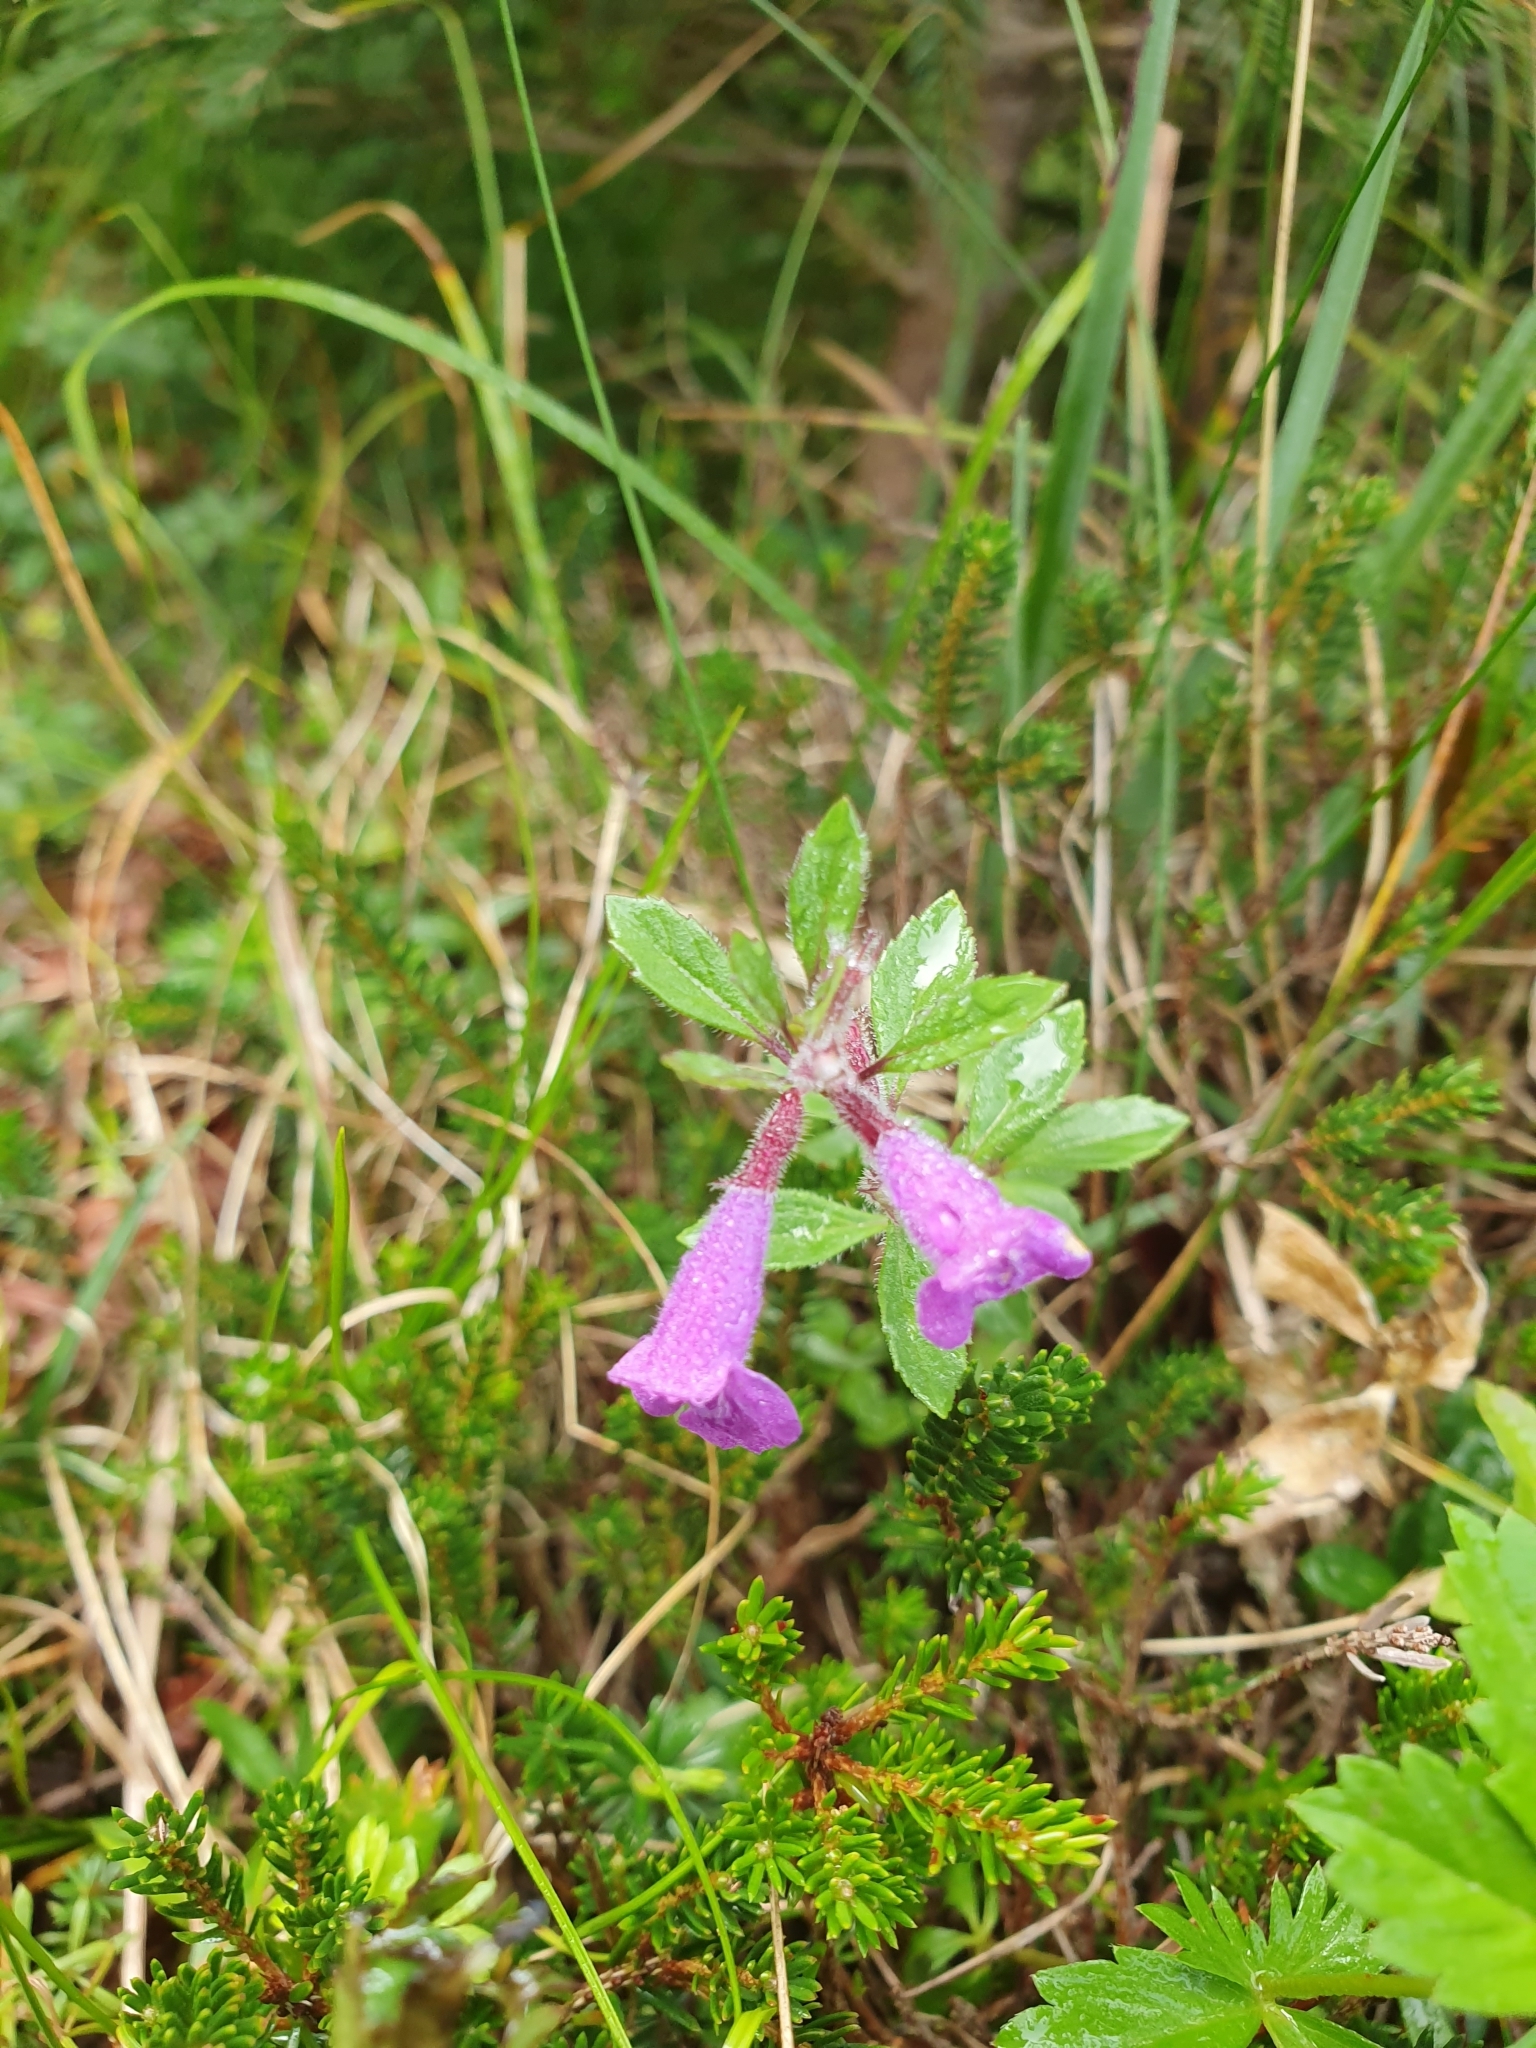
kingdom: Plantae
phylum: Tracheophyta
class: Magnoliopsida
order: Lamiales
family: Lamiaceae
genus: Clinopodium
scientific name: Clinopodium alpinum
